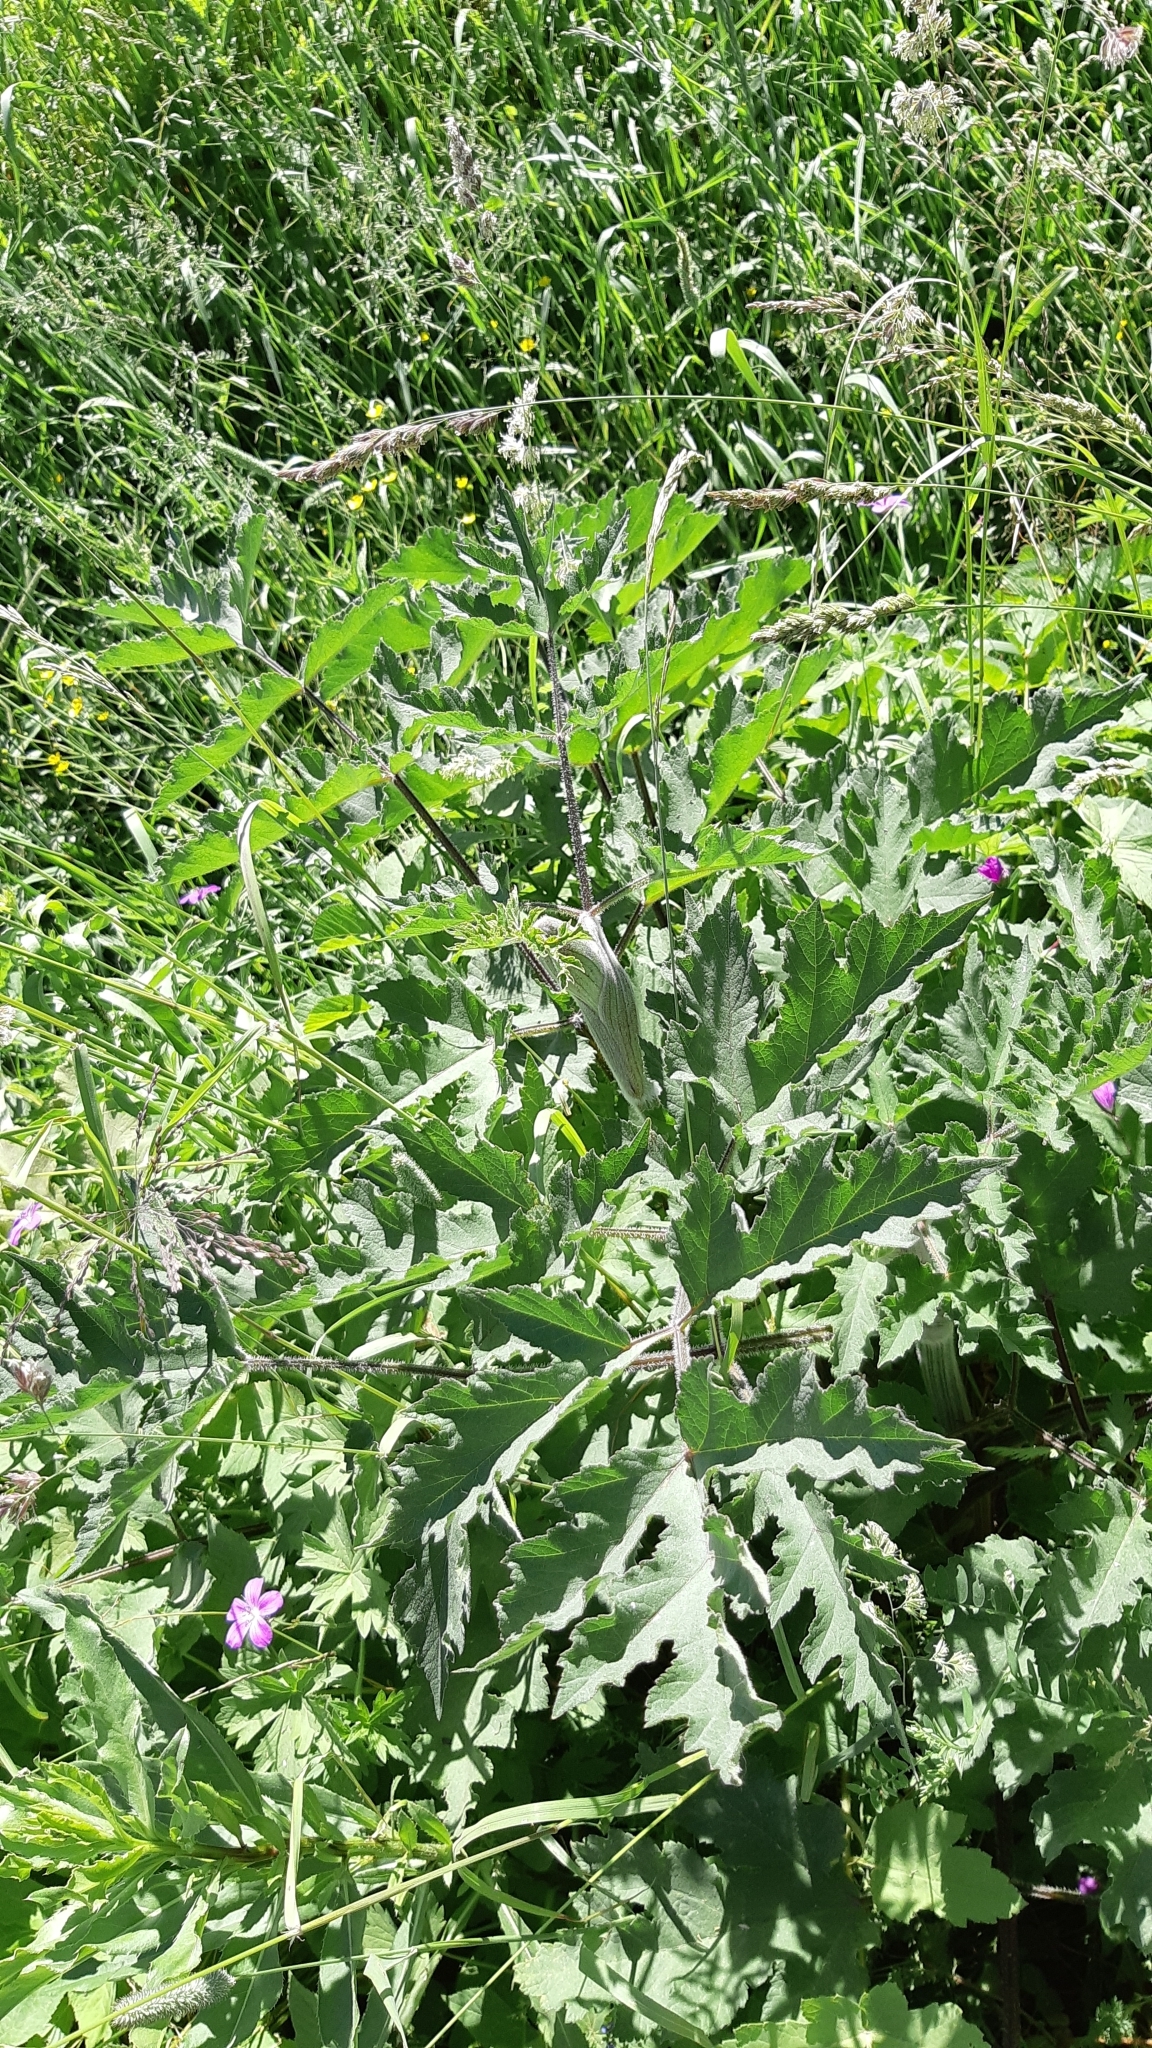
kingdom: Plantae
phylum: Tracheophyta
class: Magnoliopsida
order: Apiales
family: Apiaceae
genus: Heracleum
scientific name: Heracleum sphondylium
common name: Hogweed
